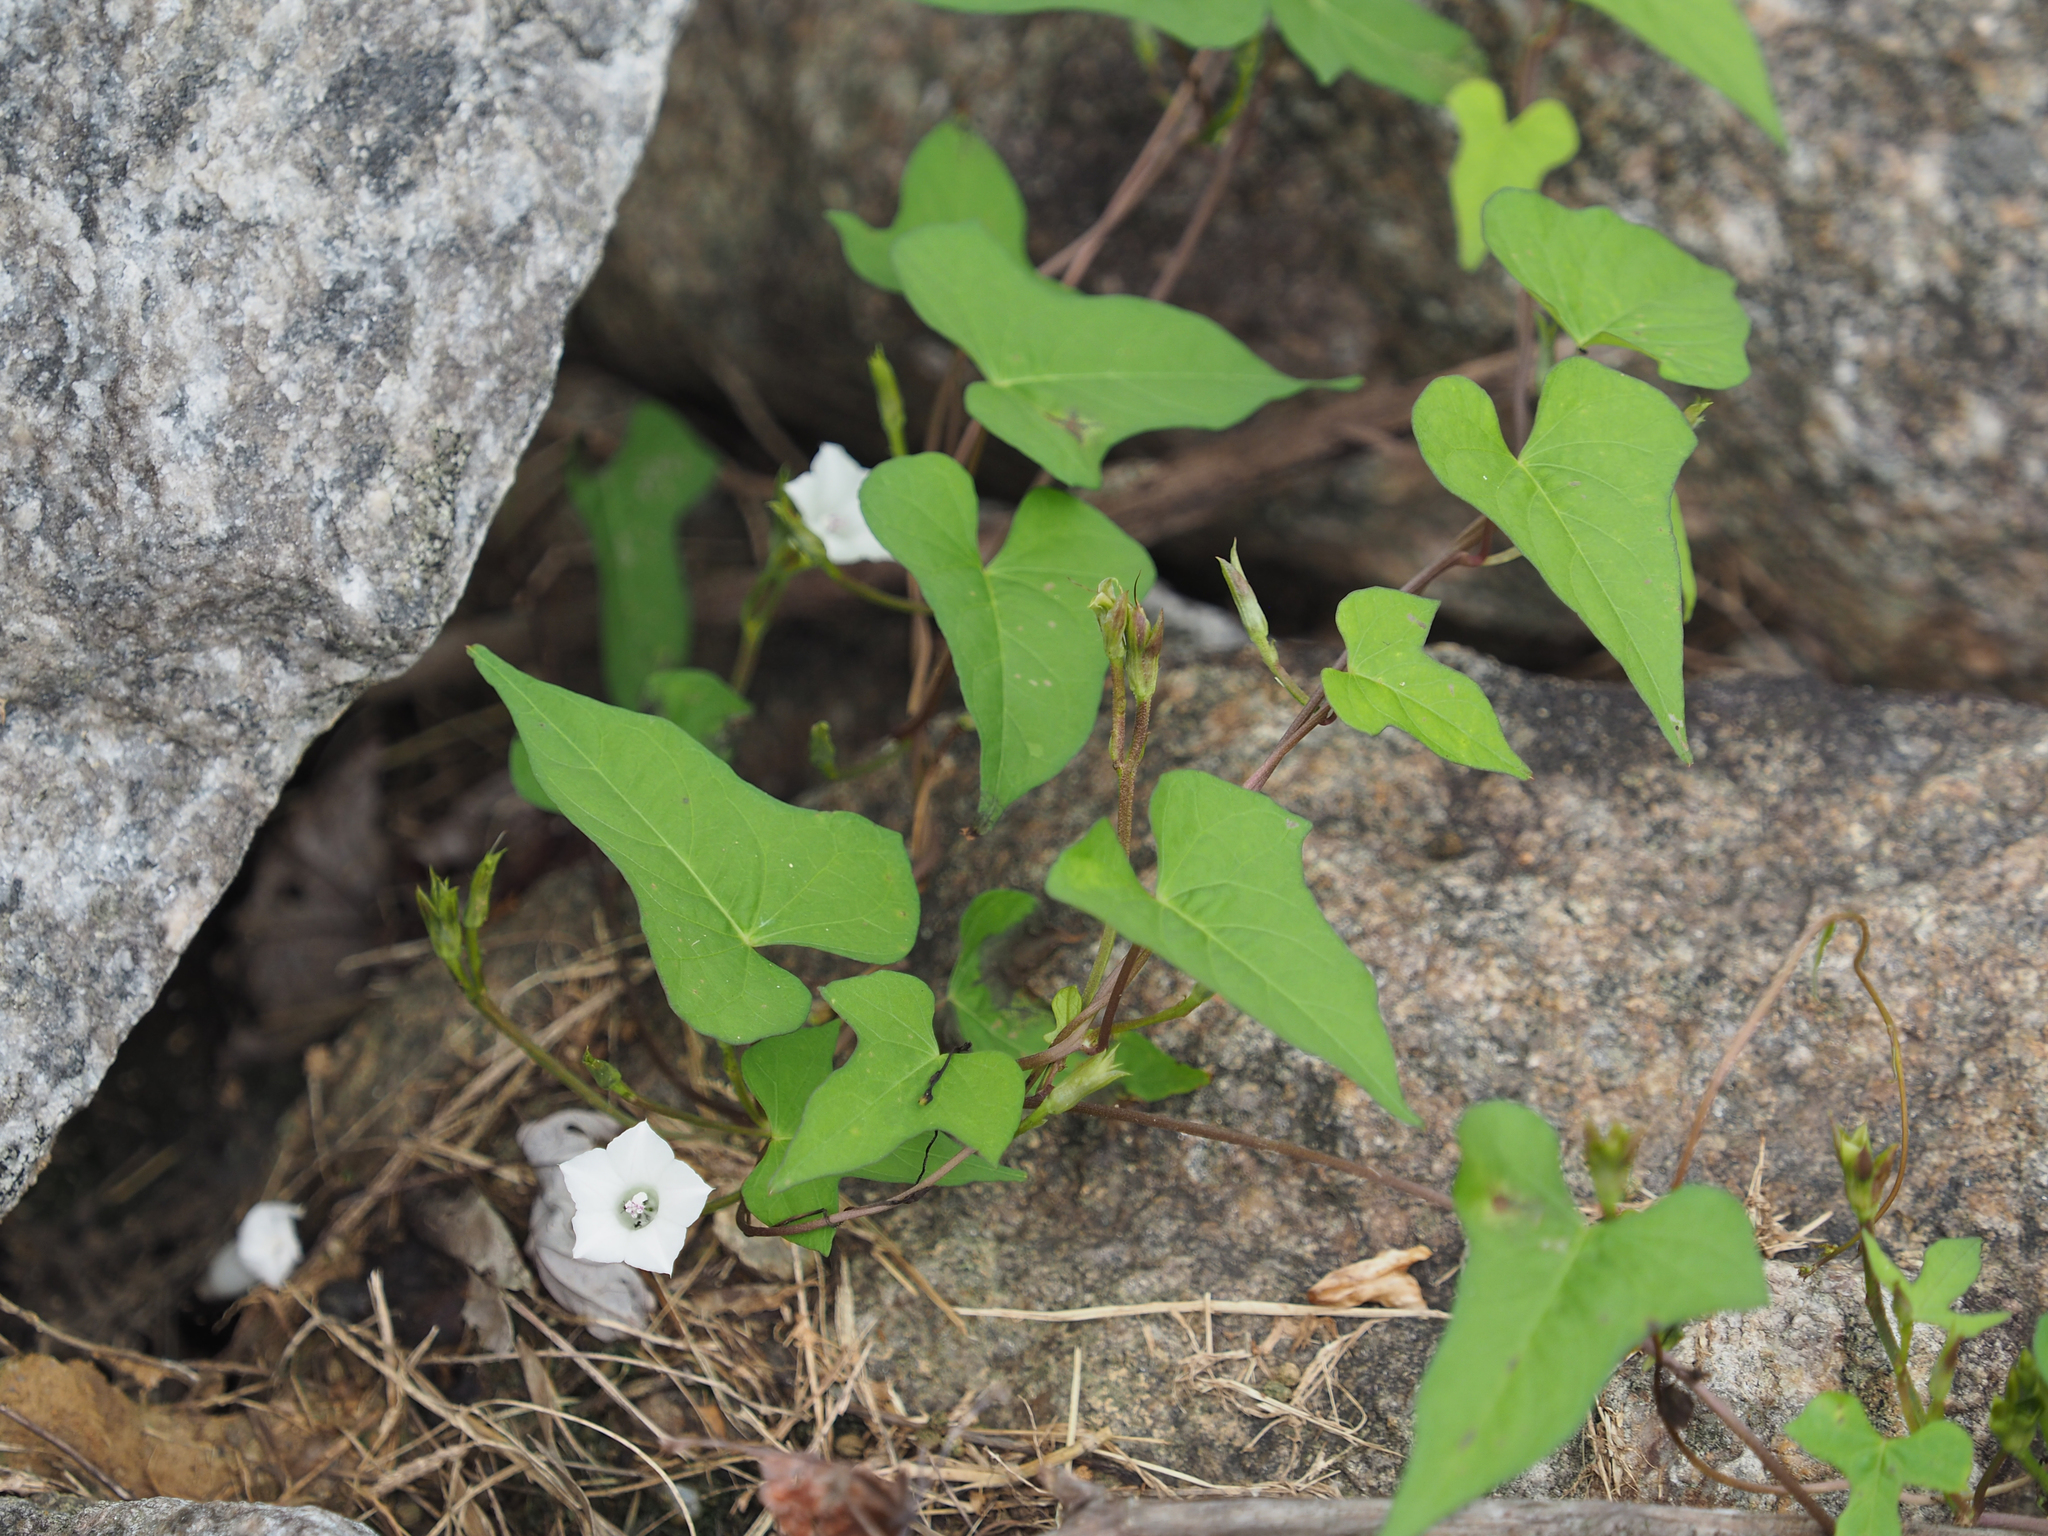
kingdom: Plantae
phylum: Tracheophyta
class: Magnoliopsida
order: Solanales
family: Convolvulaceae
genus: Ipomoea
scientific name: Ipomoea lacunosa
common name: White morning-glory
